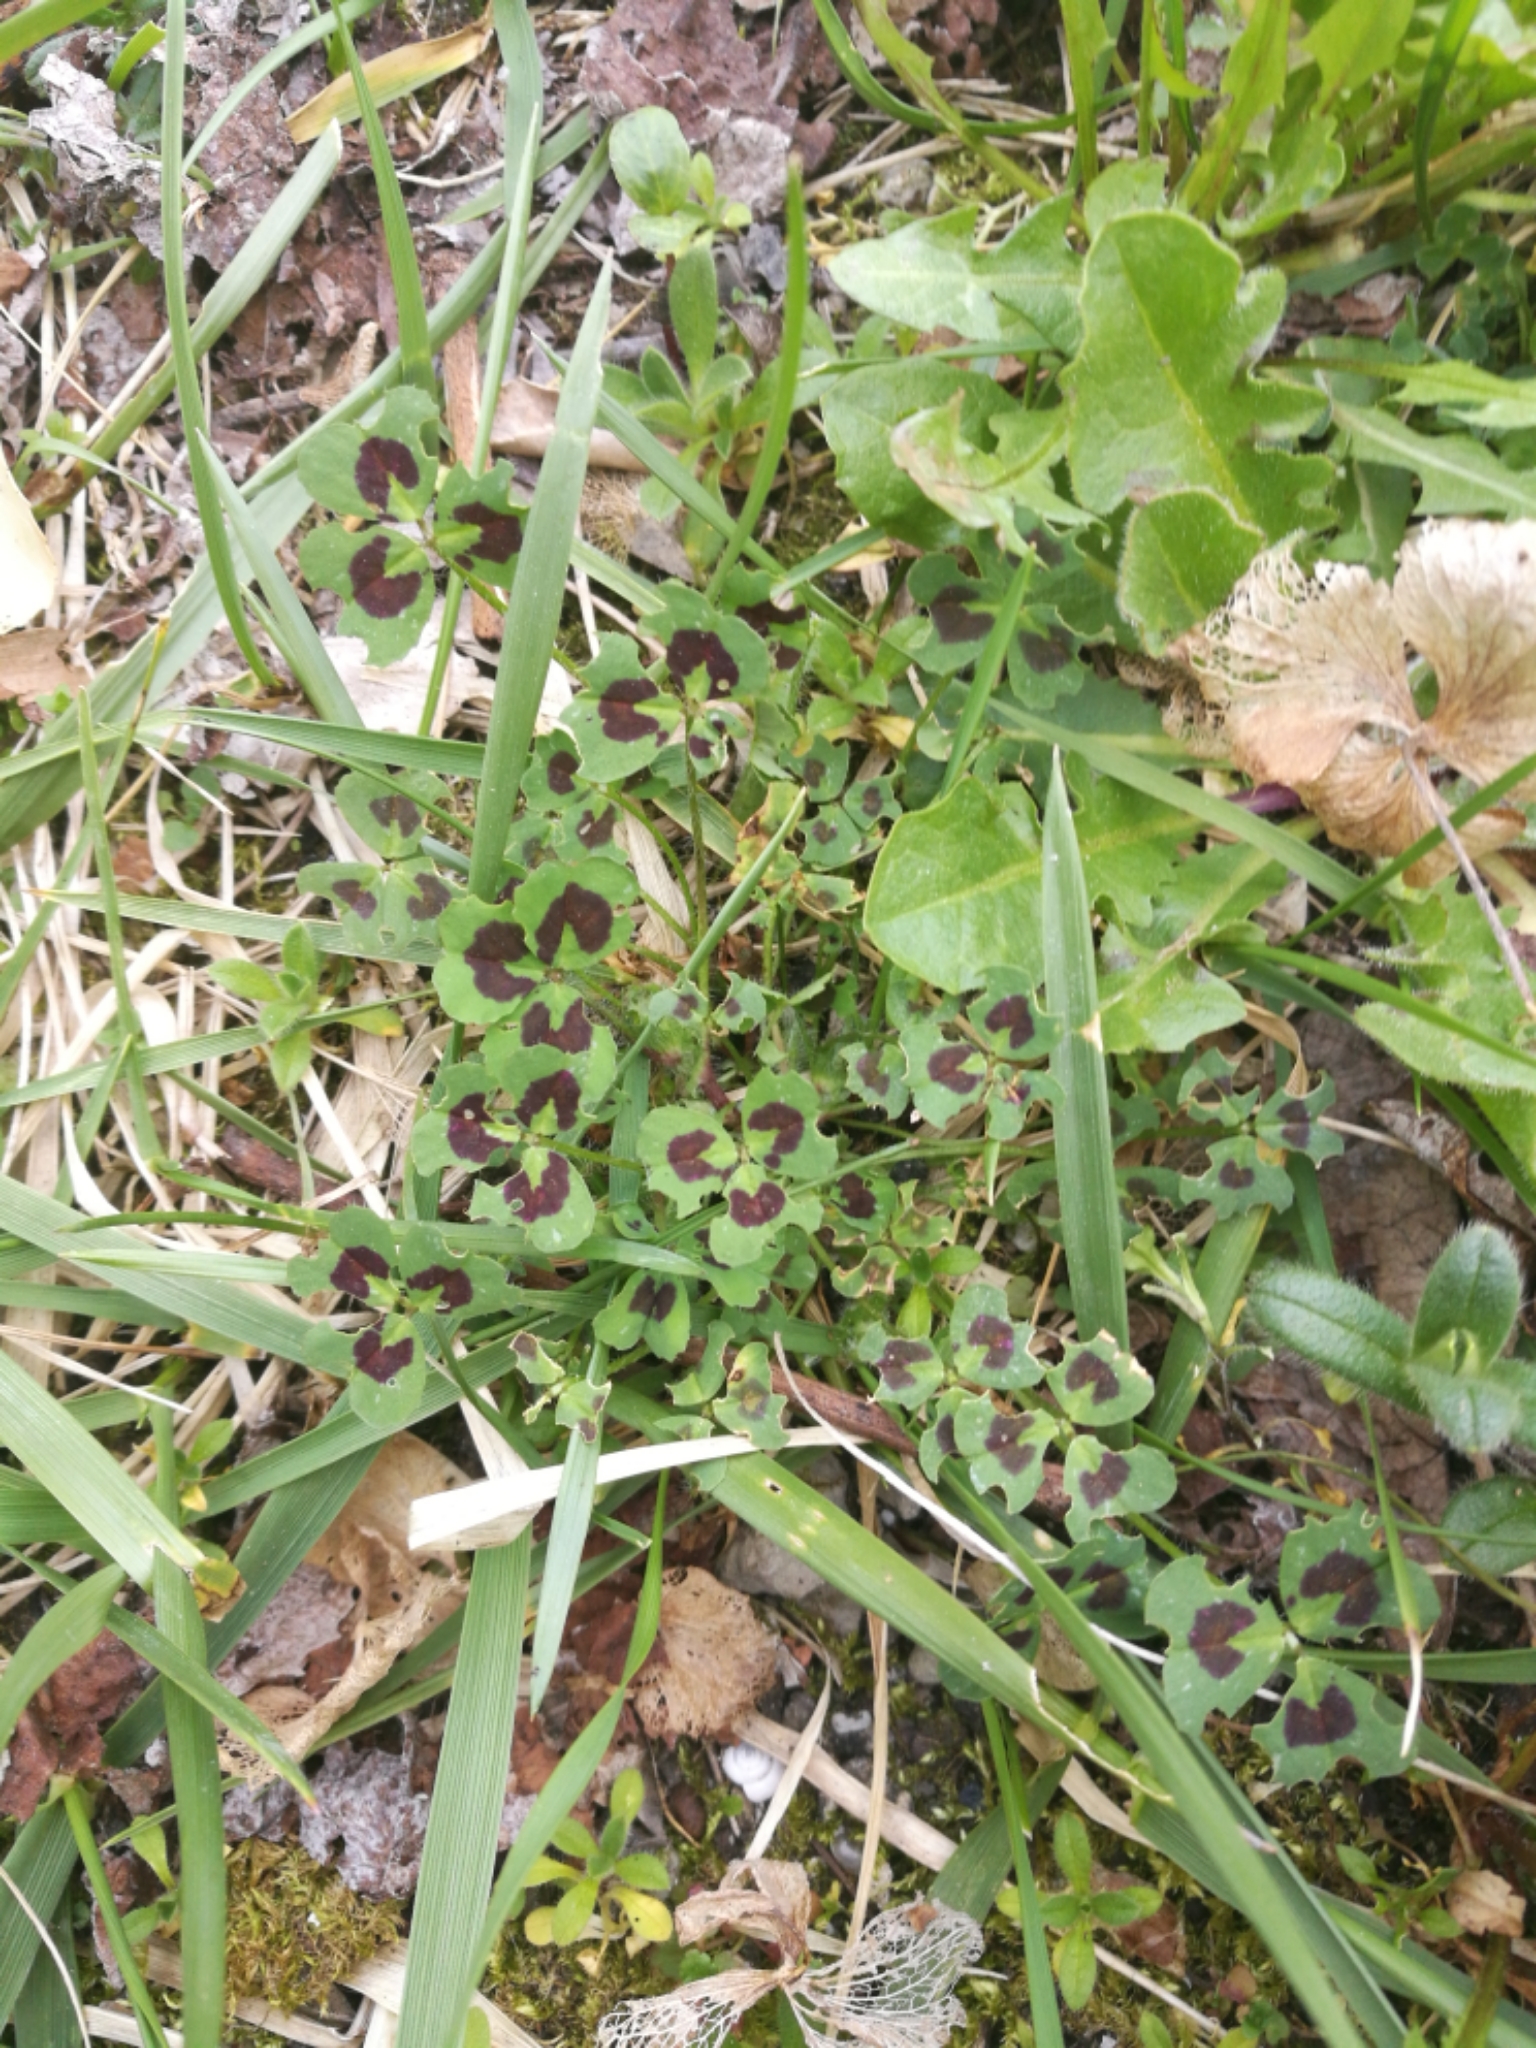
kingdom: Plantae
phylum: Tracheophyta
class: Magnoliopsida
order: Fabales
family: Fabaceae
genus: Medicago
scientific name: Medicago arabica
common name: Spotted medick
